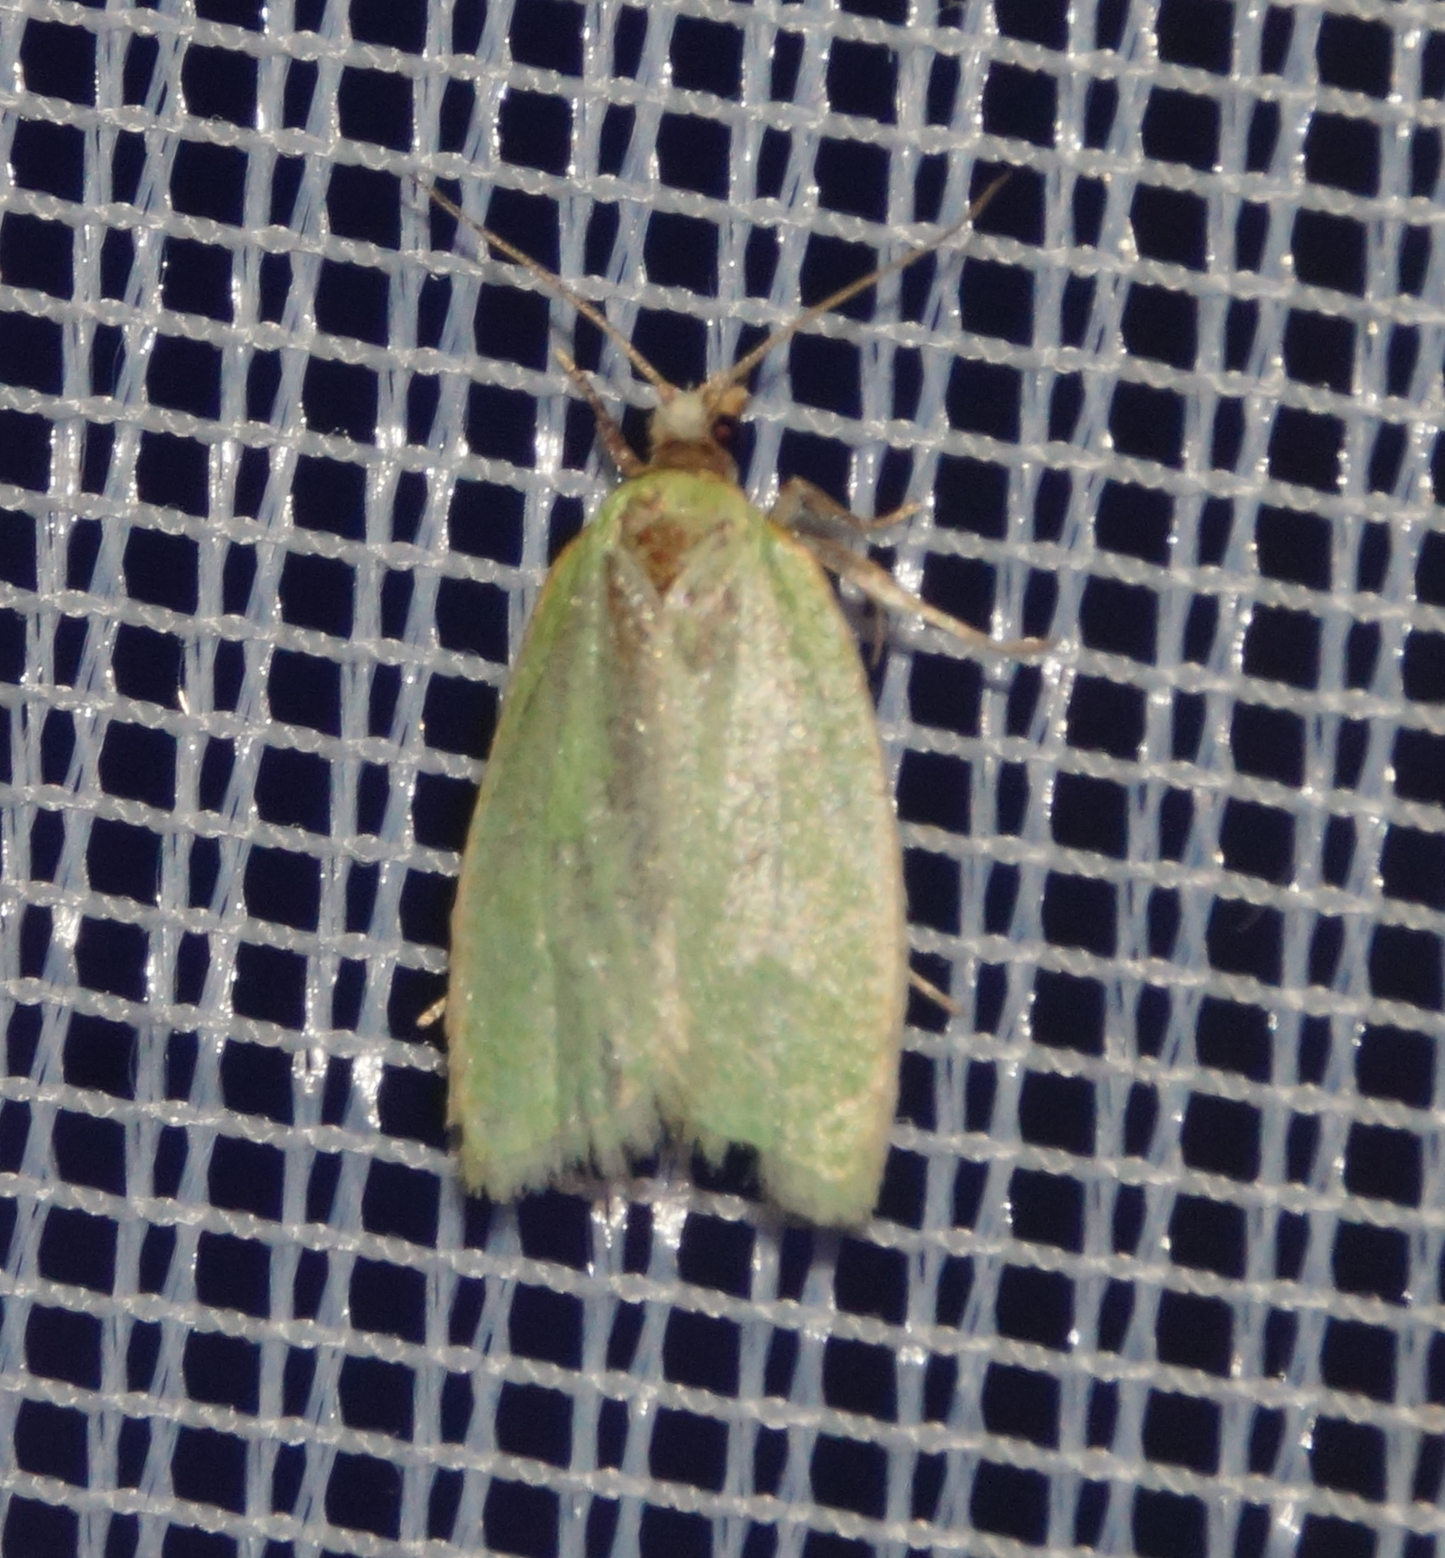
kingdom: Animalia
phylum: Arthropoda
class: Insecta
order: Lepidoptera
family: Tortricidae
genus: Tortrix
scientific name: Tortrix viridana
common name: Green oak tortrix
